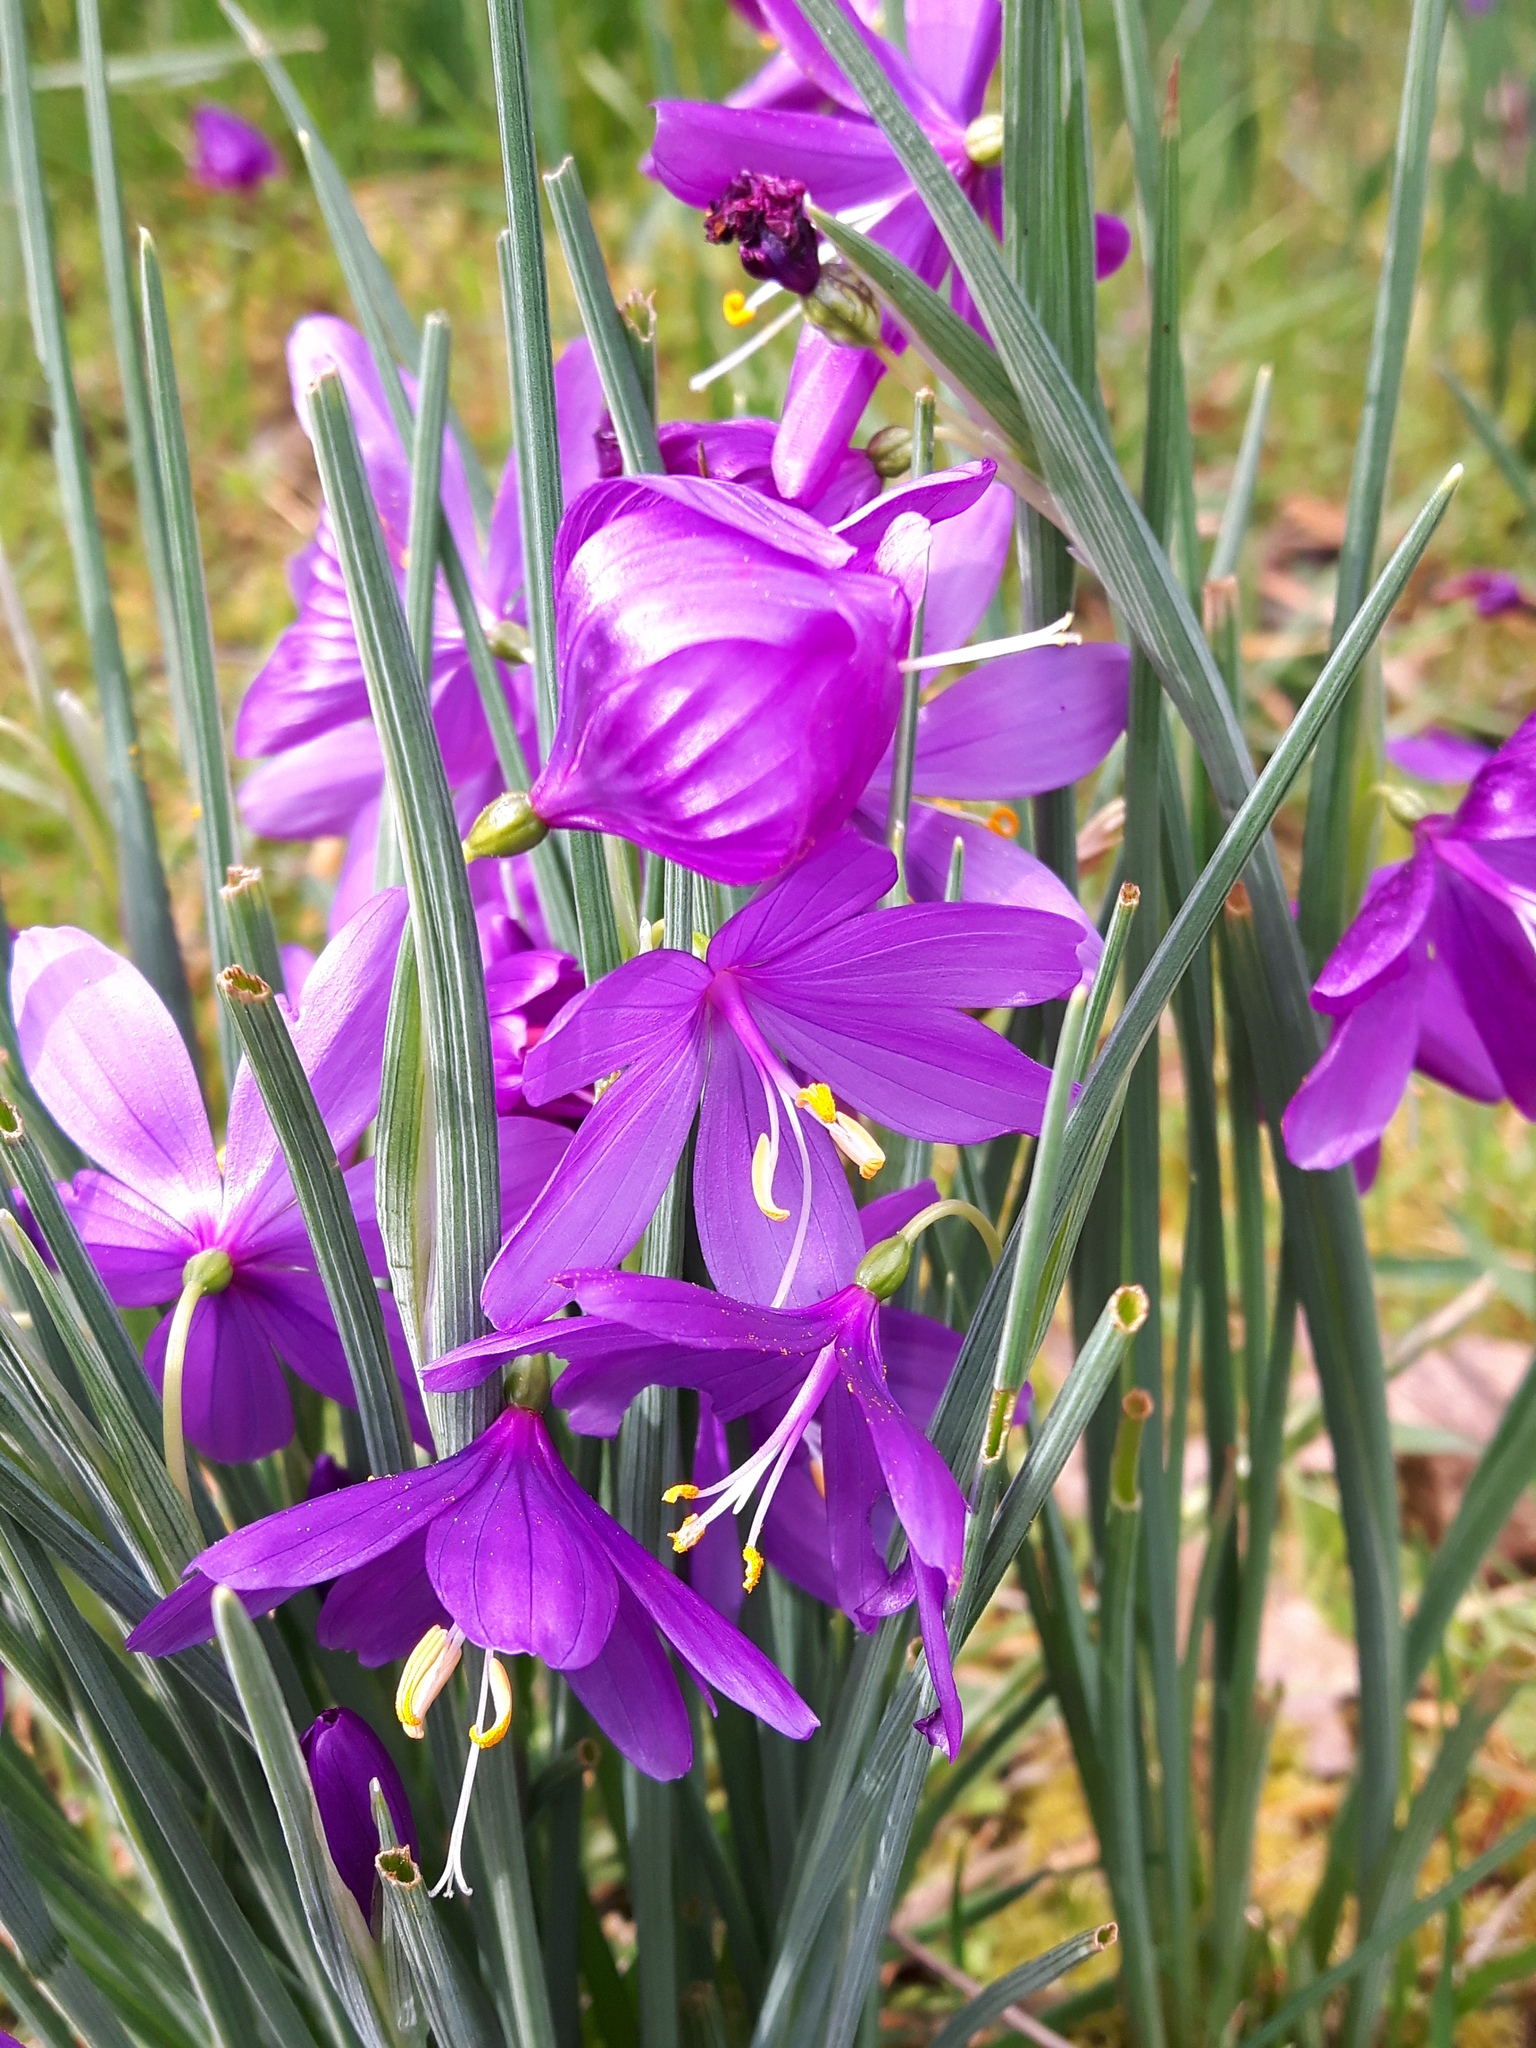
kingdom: Plantae
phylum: Tracheophyta
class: Liliopsida
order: Asparagales
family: Iridaceae
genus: Olsynium
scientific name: Olsynium douglasii
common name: Douglas' grasswidow
